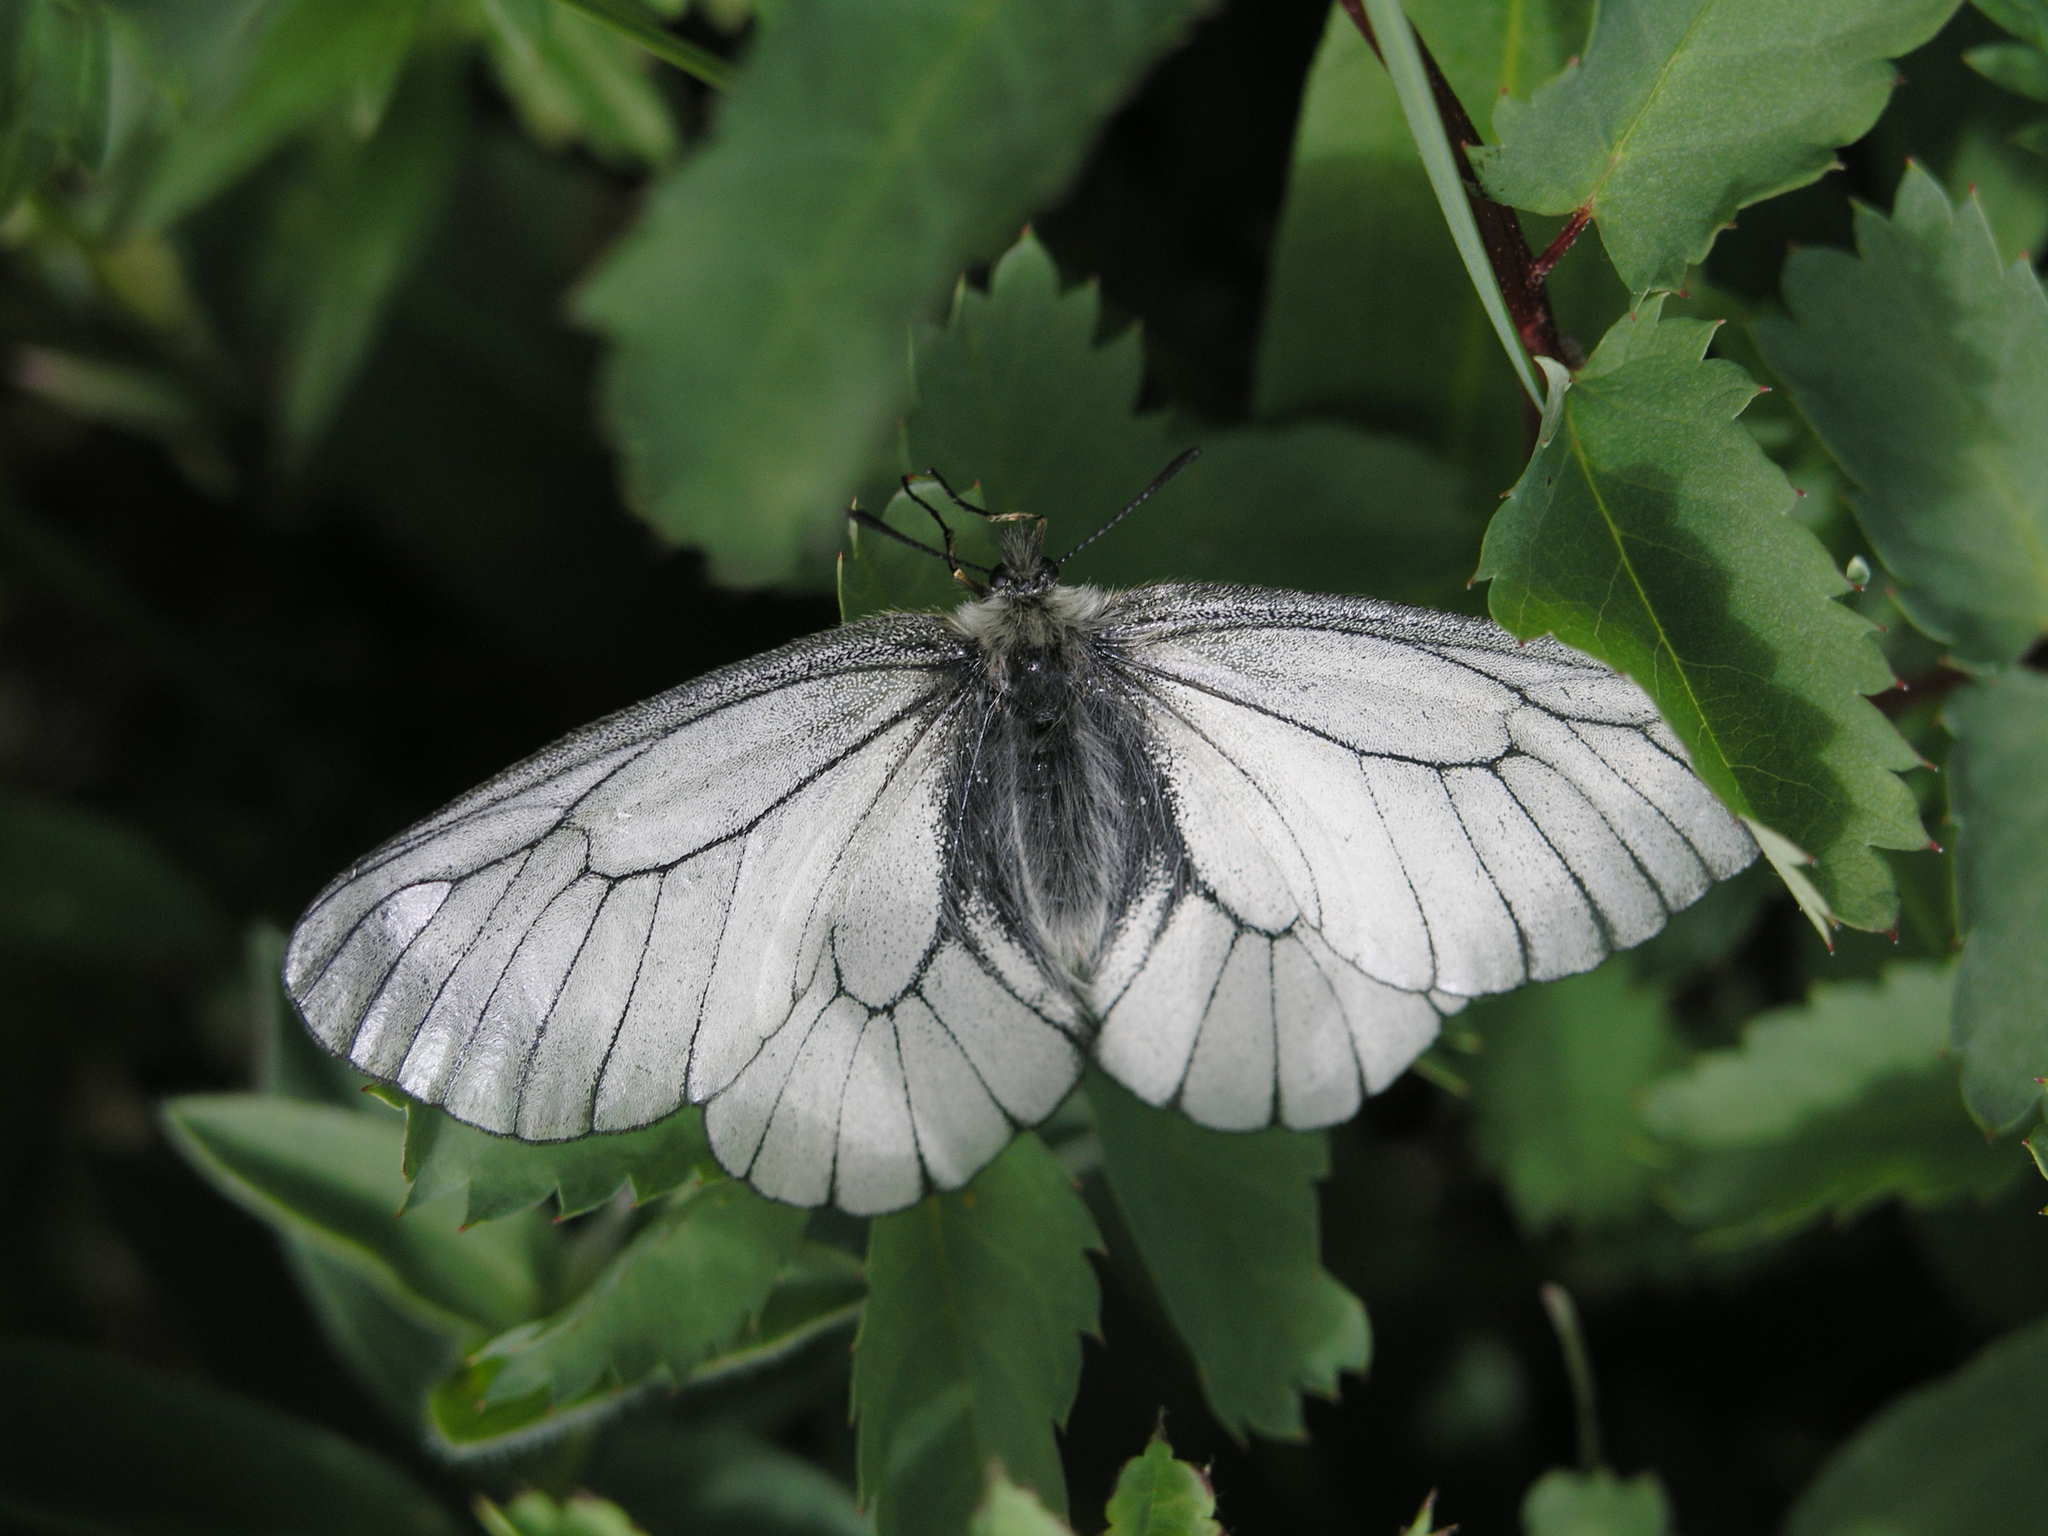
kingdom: Animalia
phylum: Arthropoda
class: Insecta
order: Lepidoptera
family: Papilionidae
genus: Parnassius
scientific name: Parnassius stubbendorfii
